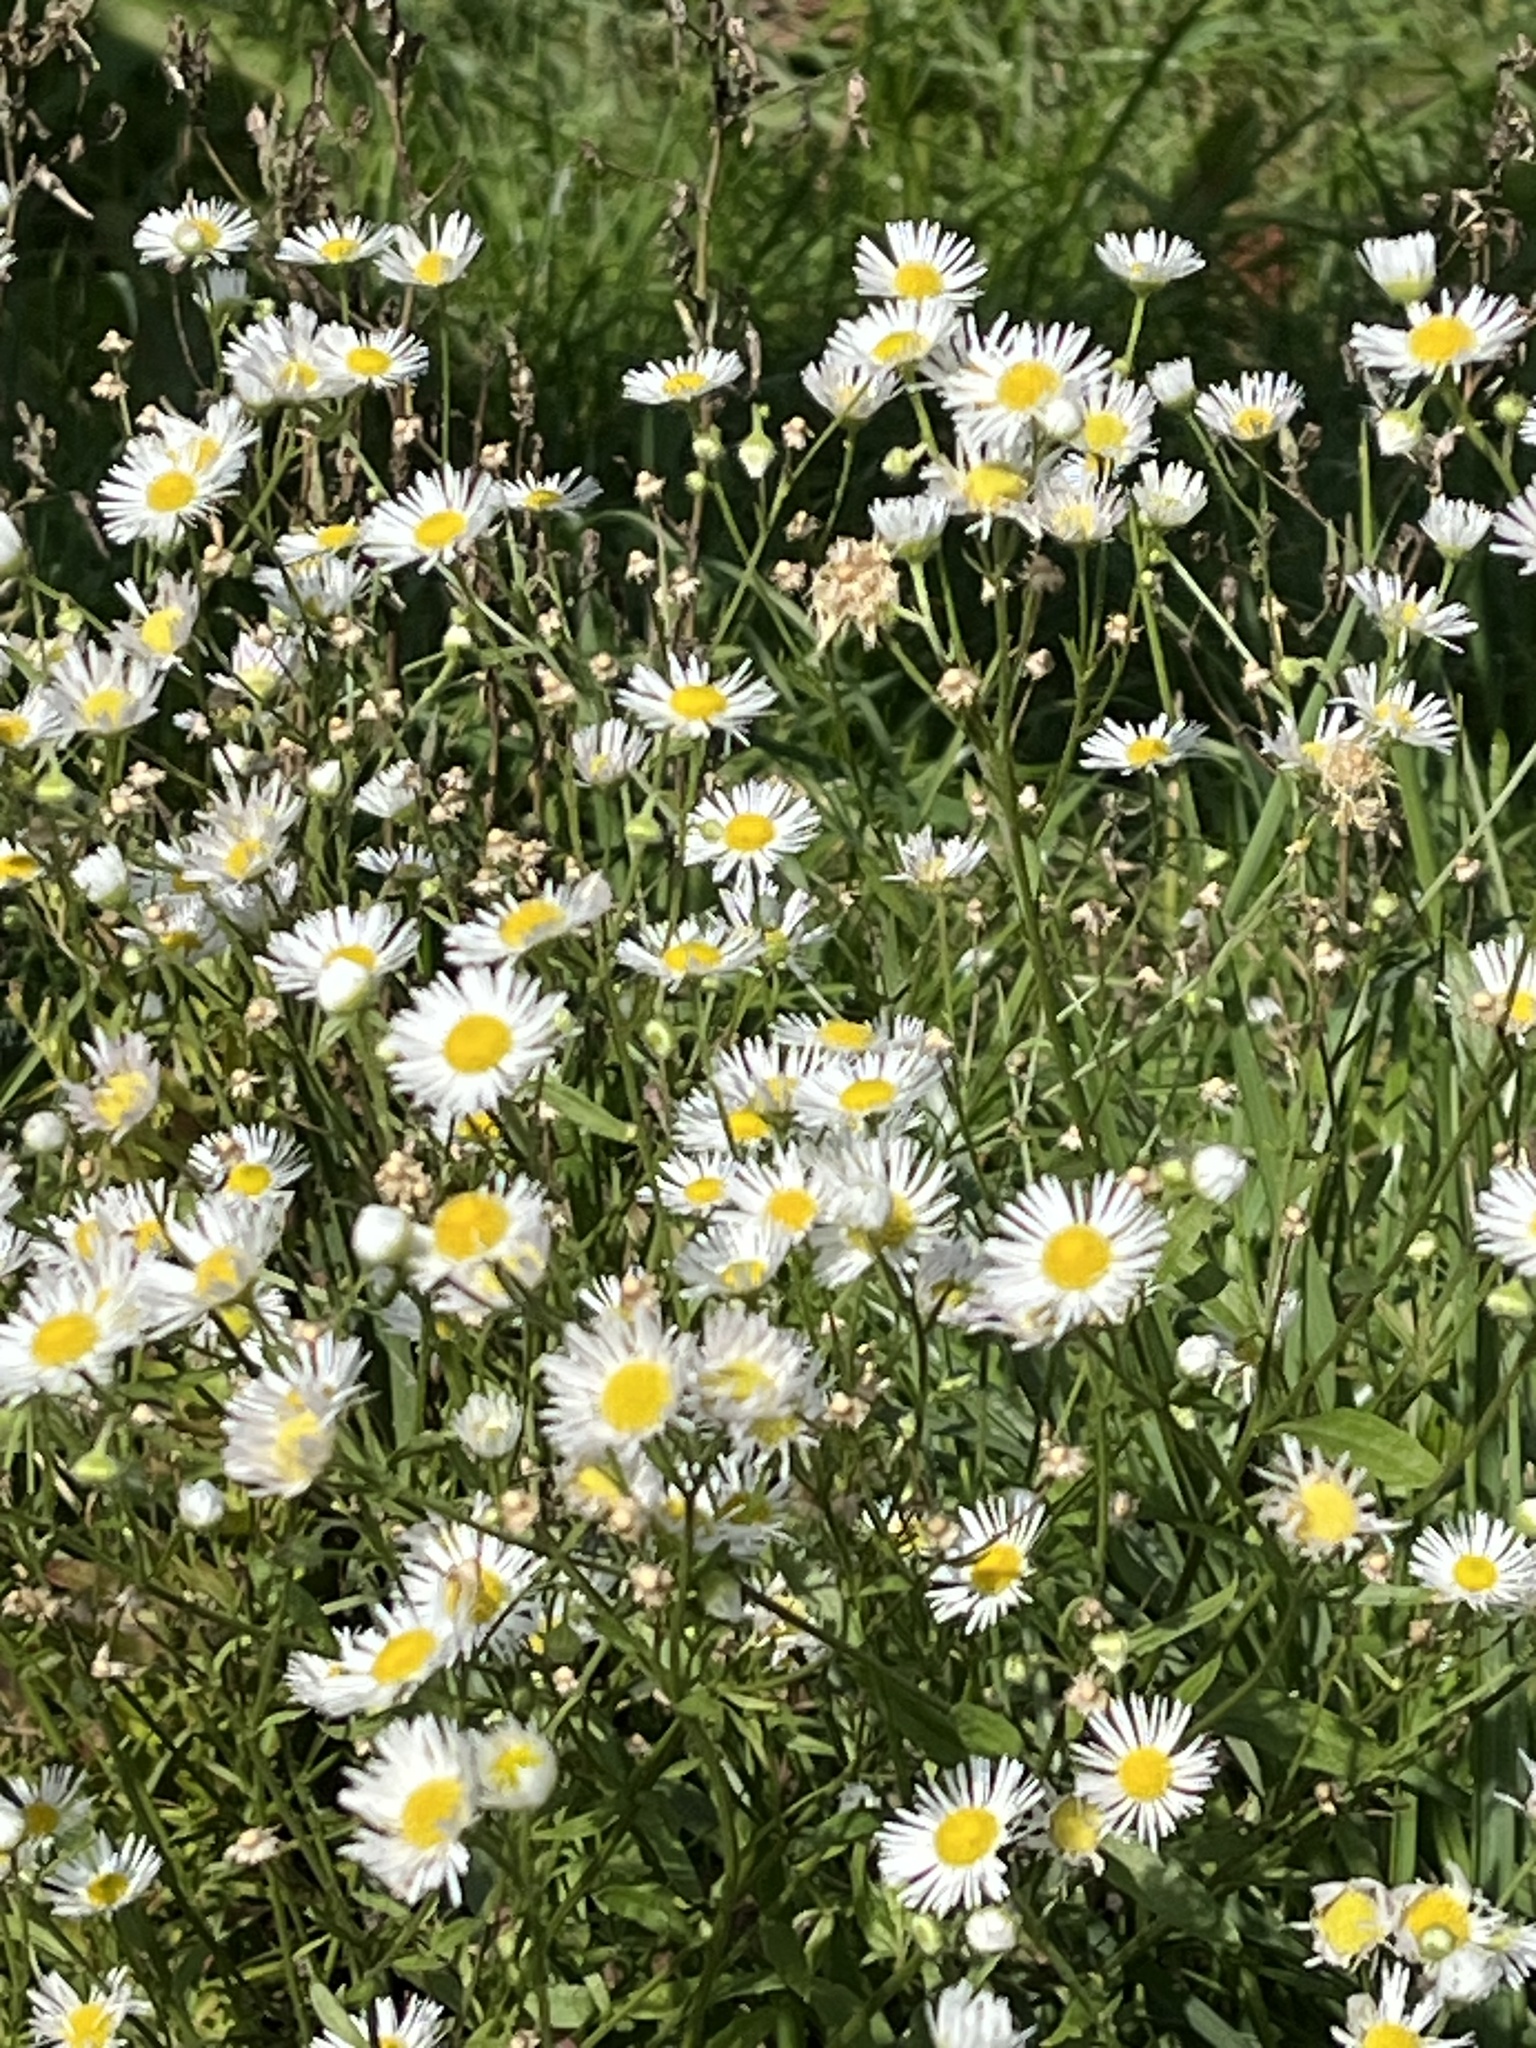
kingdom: Plantae
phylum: Tracheophyta
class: Magnoliopsida
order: Asterales
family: Asteraceae
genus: Erigeron
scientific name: Erigeron annuus
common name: Tall fleabane
